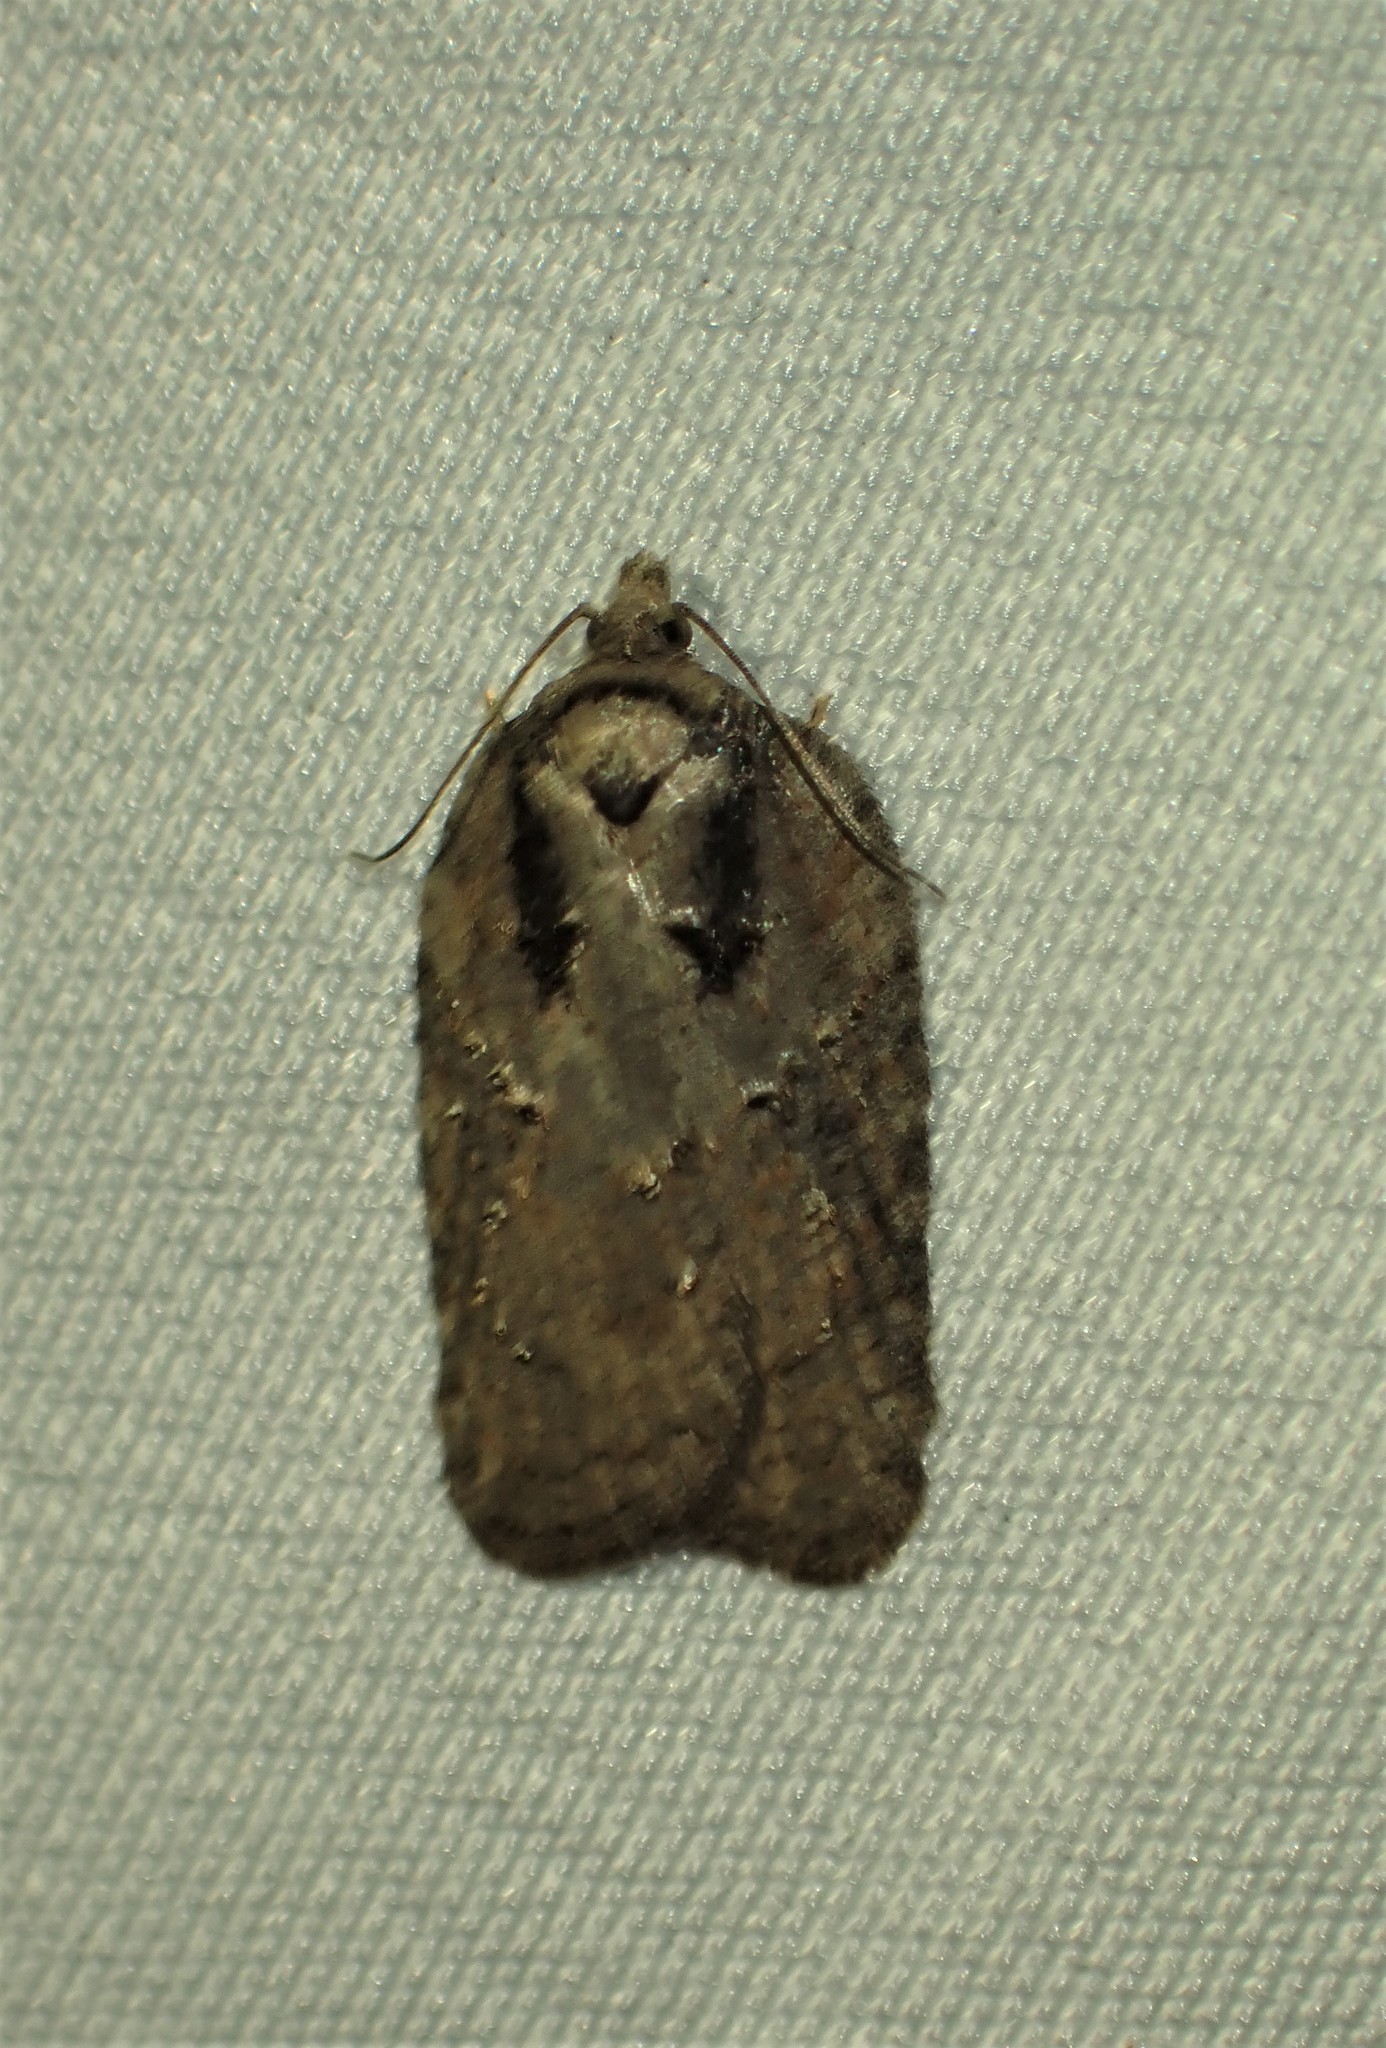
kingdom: Animalia
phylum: Arthropoda
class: Insecta
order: Lepidoptera
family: Tortricidae
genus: Acleris
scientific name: Acleris chalybeana
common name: Lesser maple leafroller
